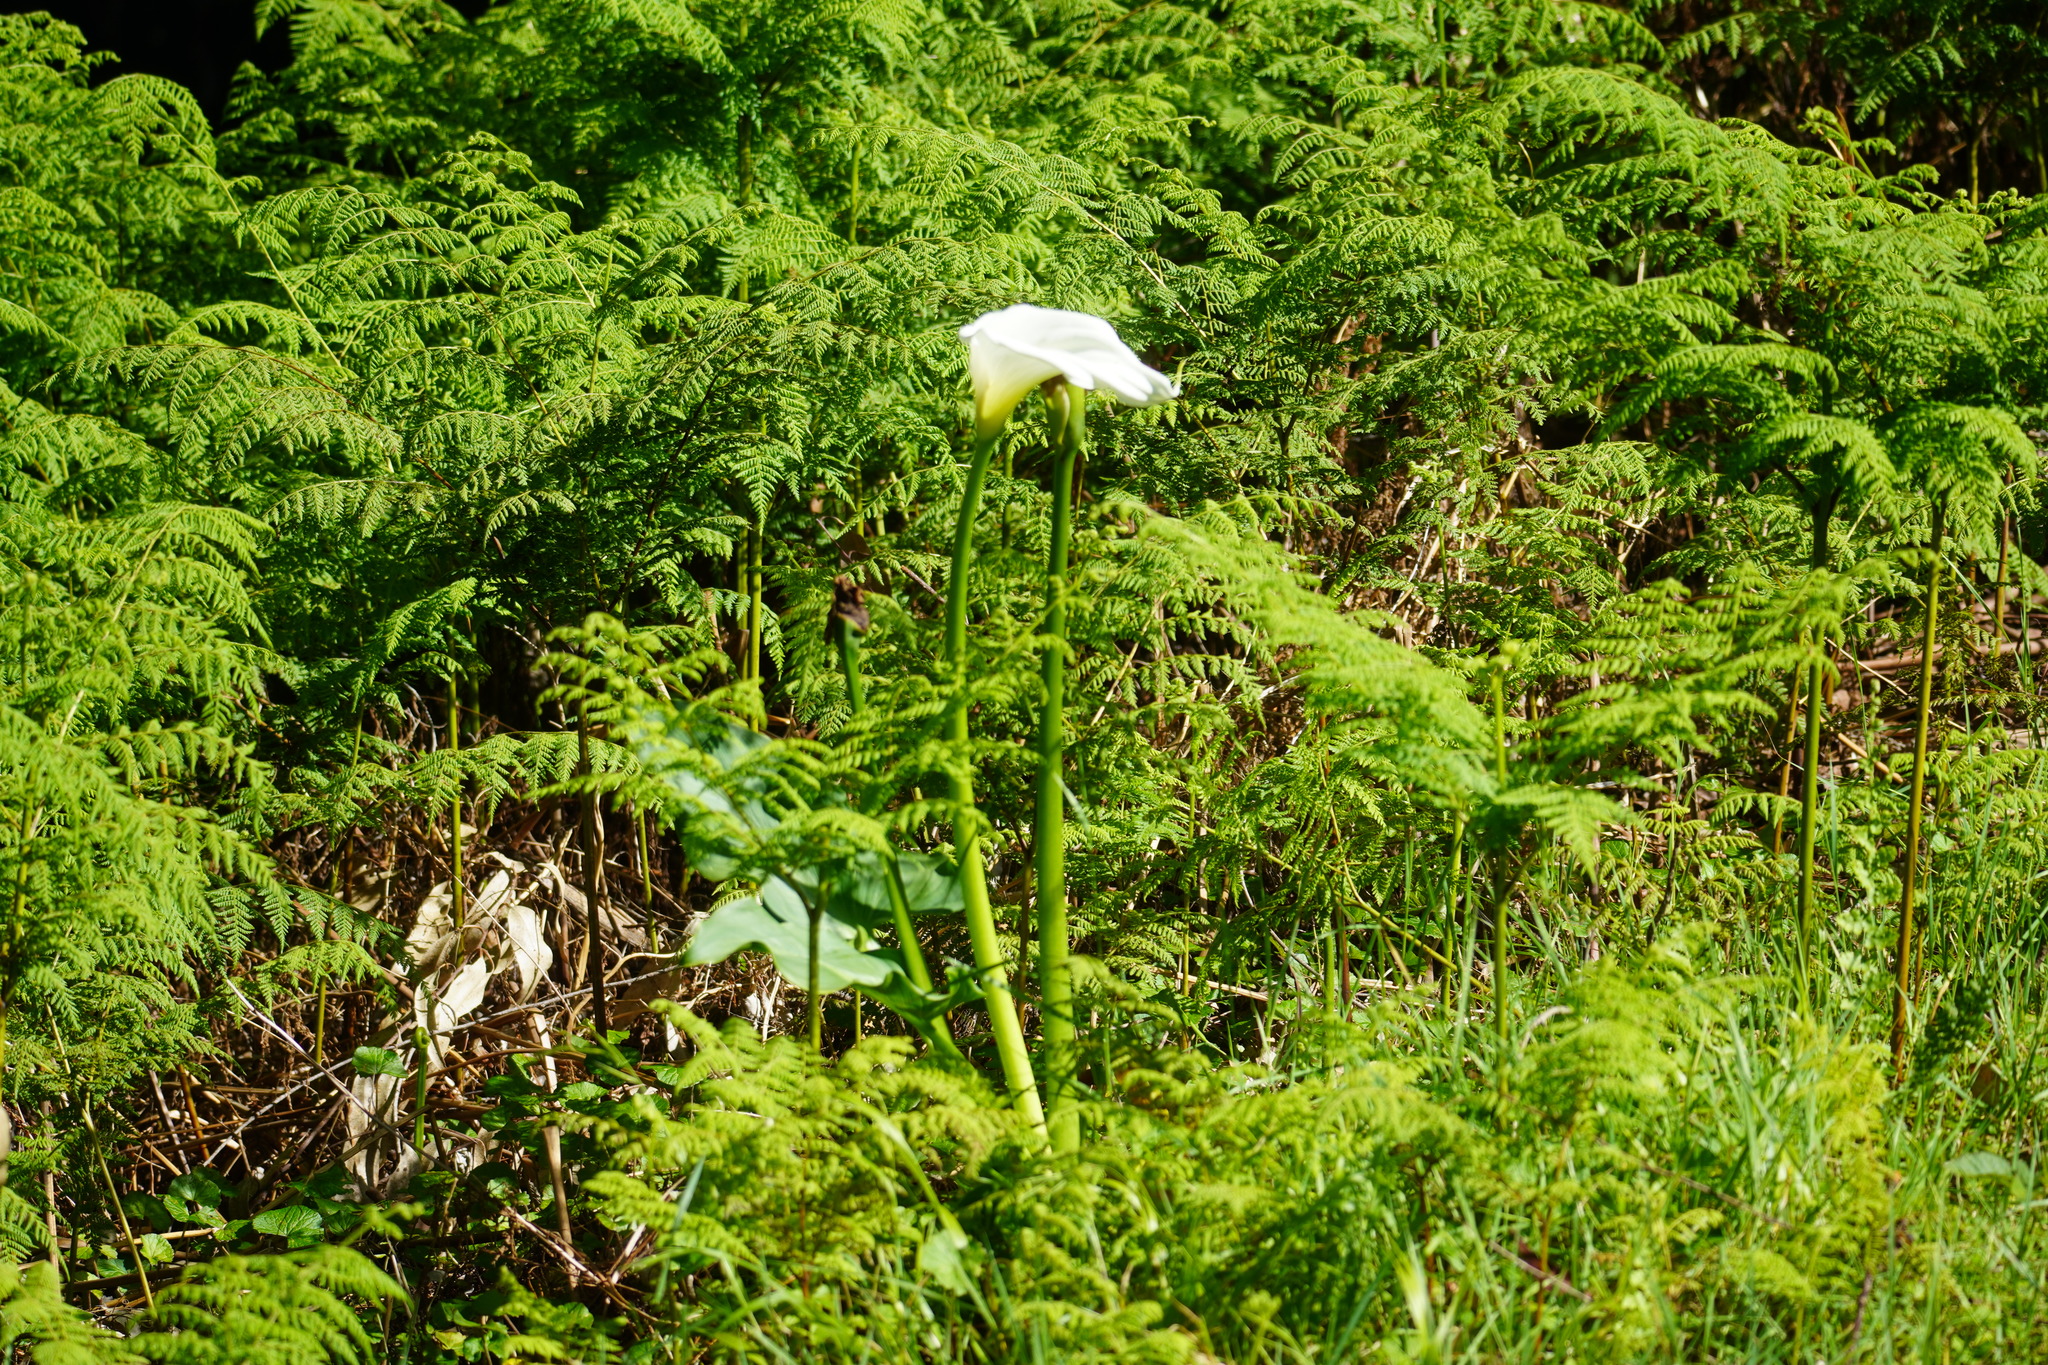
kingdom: Plantae
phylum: Tracheophyta
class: Liliopsida
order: Alismatales
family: Araceae
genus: Zantedeschia
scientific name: Zantedeschia aethiopica
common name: Altar-lily
